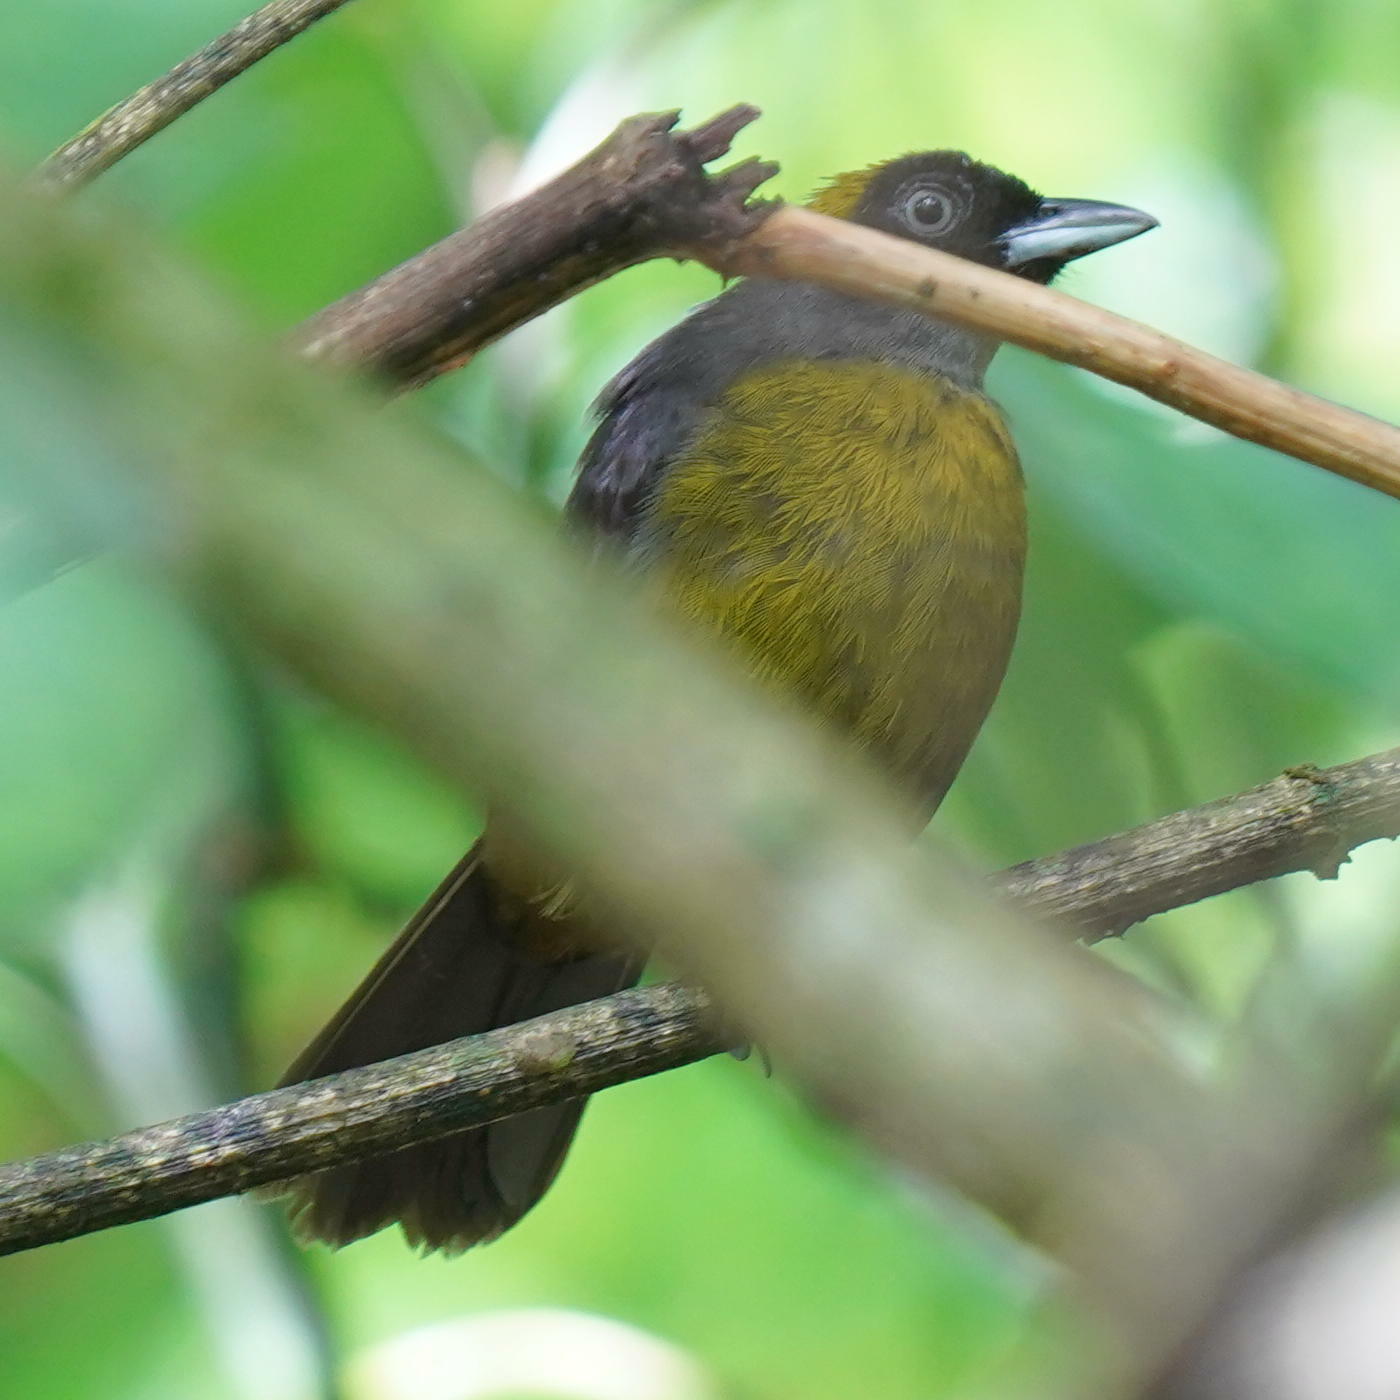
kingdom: Animalia
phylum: Chordata
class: Aves
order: Passeriformes
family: Mitrospingidae
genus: Mitrospingus
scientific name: Mitrospingus cassinii
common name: Dusky-faced tanager
